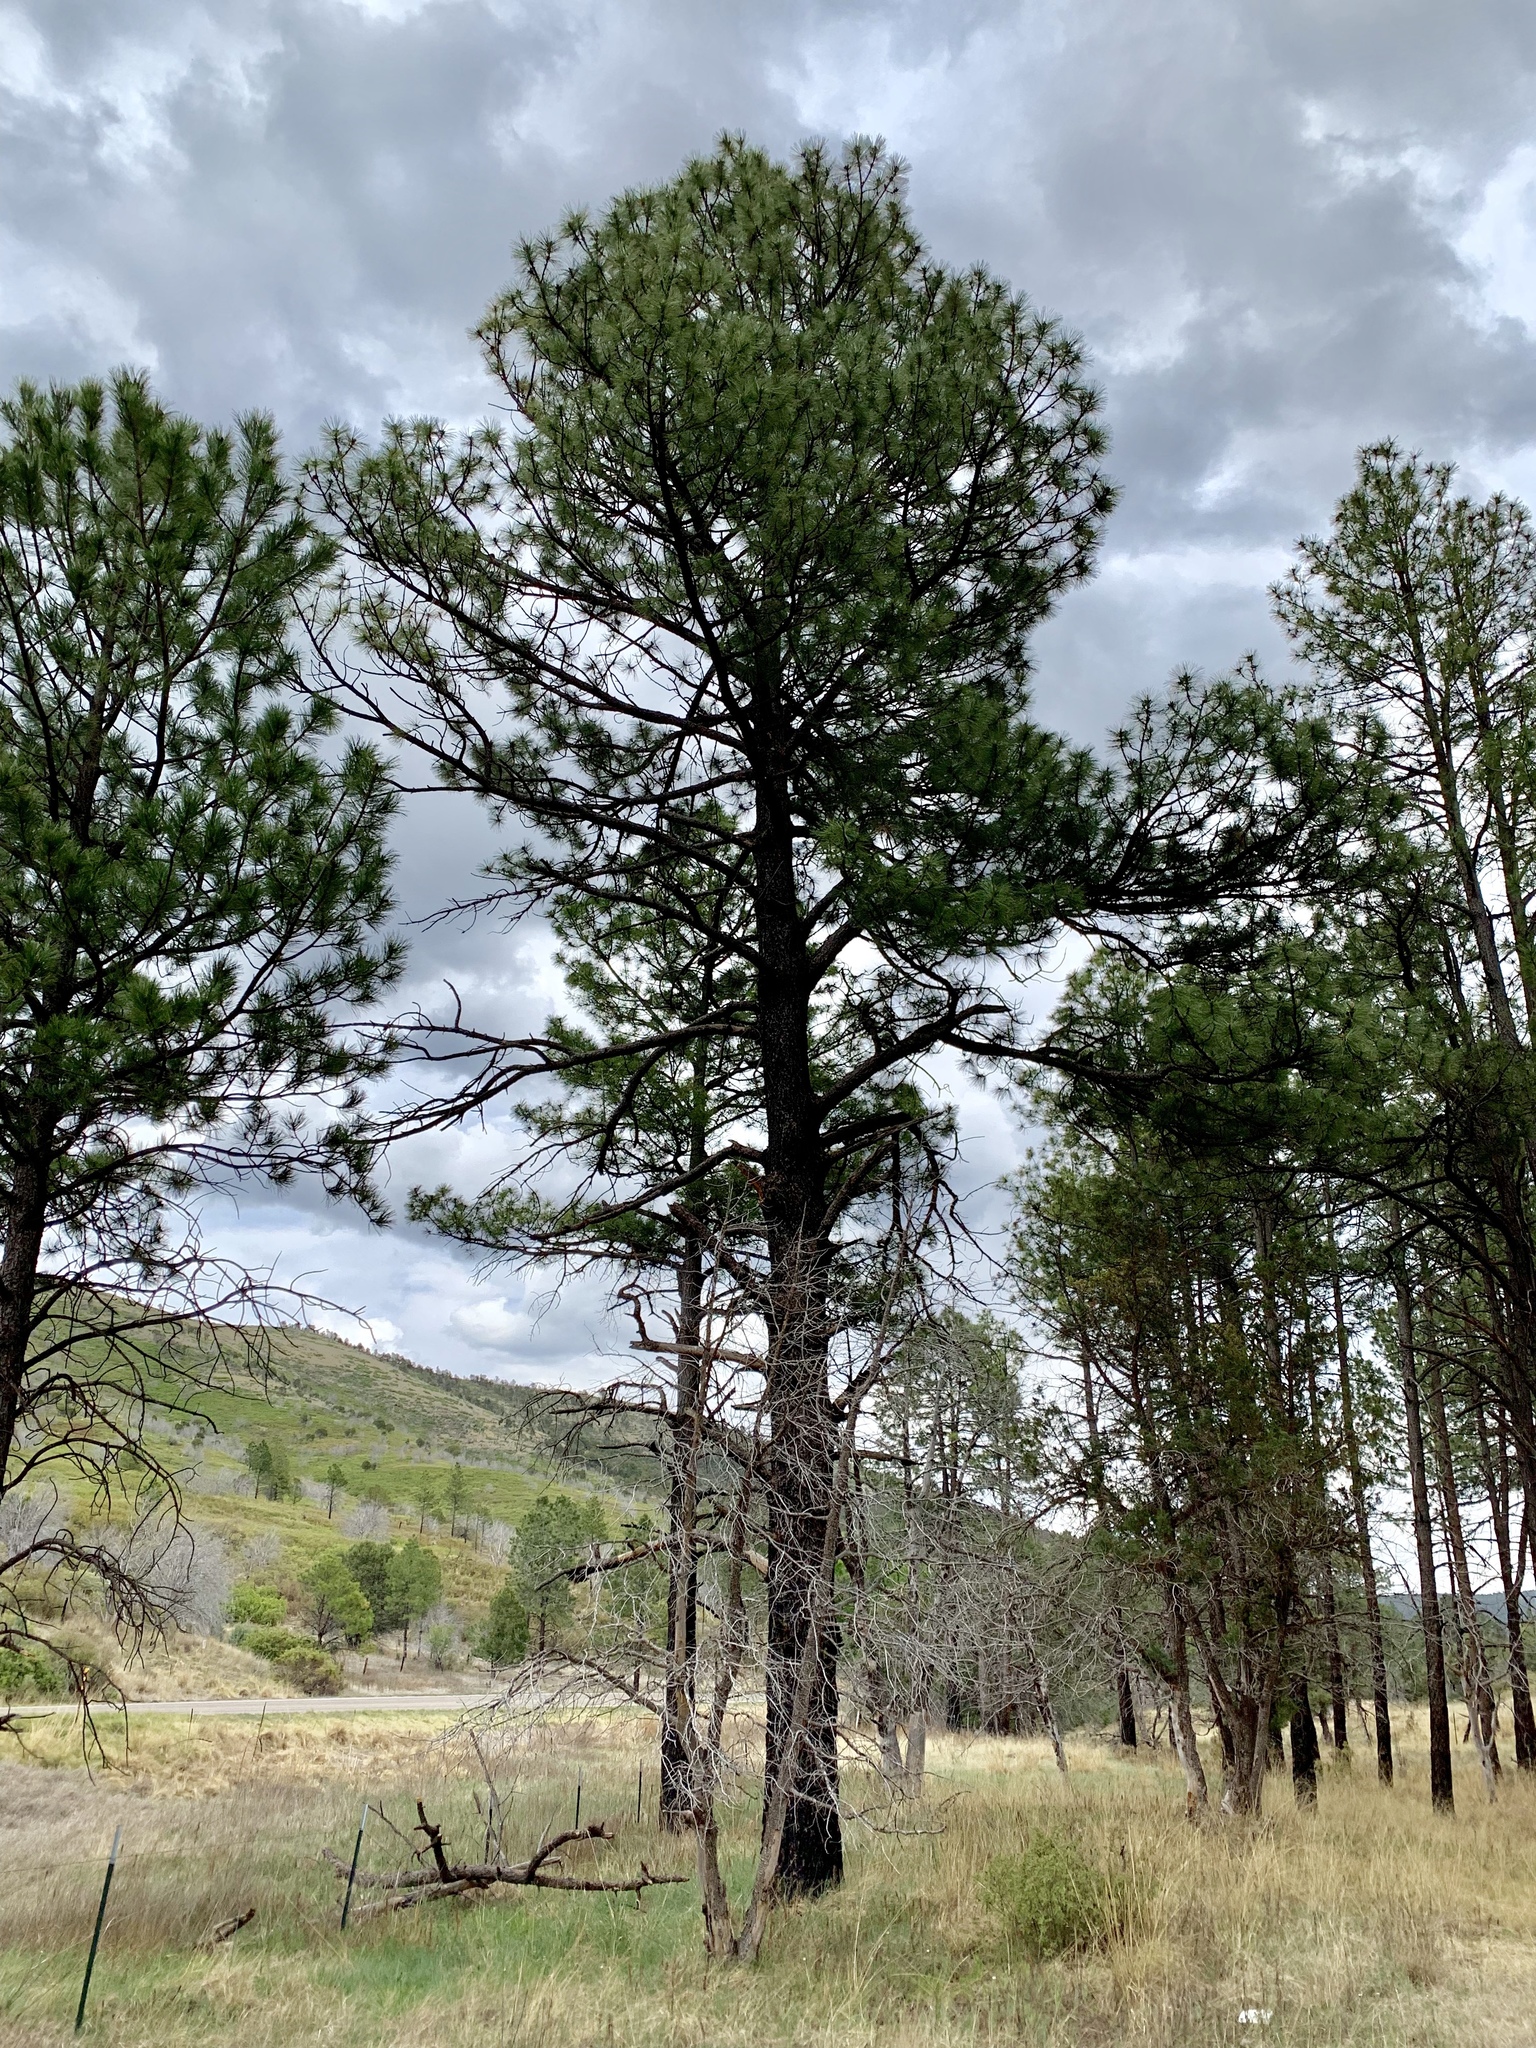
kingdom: Plantae
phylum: Tracheophyta
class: Pinopsida
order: Pinales
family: Pinaceae
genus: Pinus
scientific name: Pinus ponderosa
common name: Western yellow-pine
